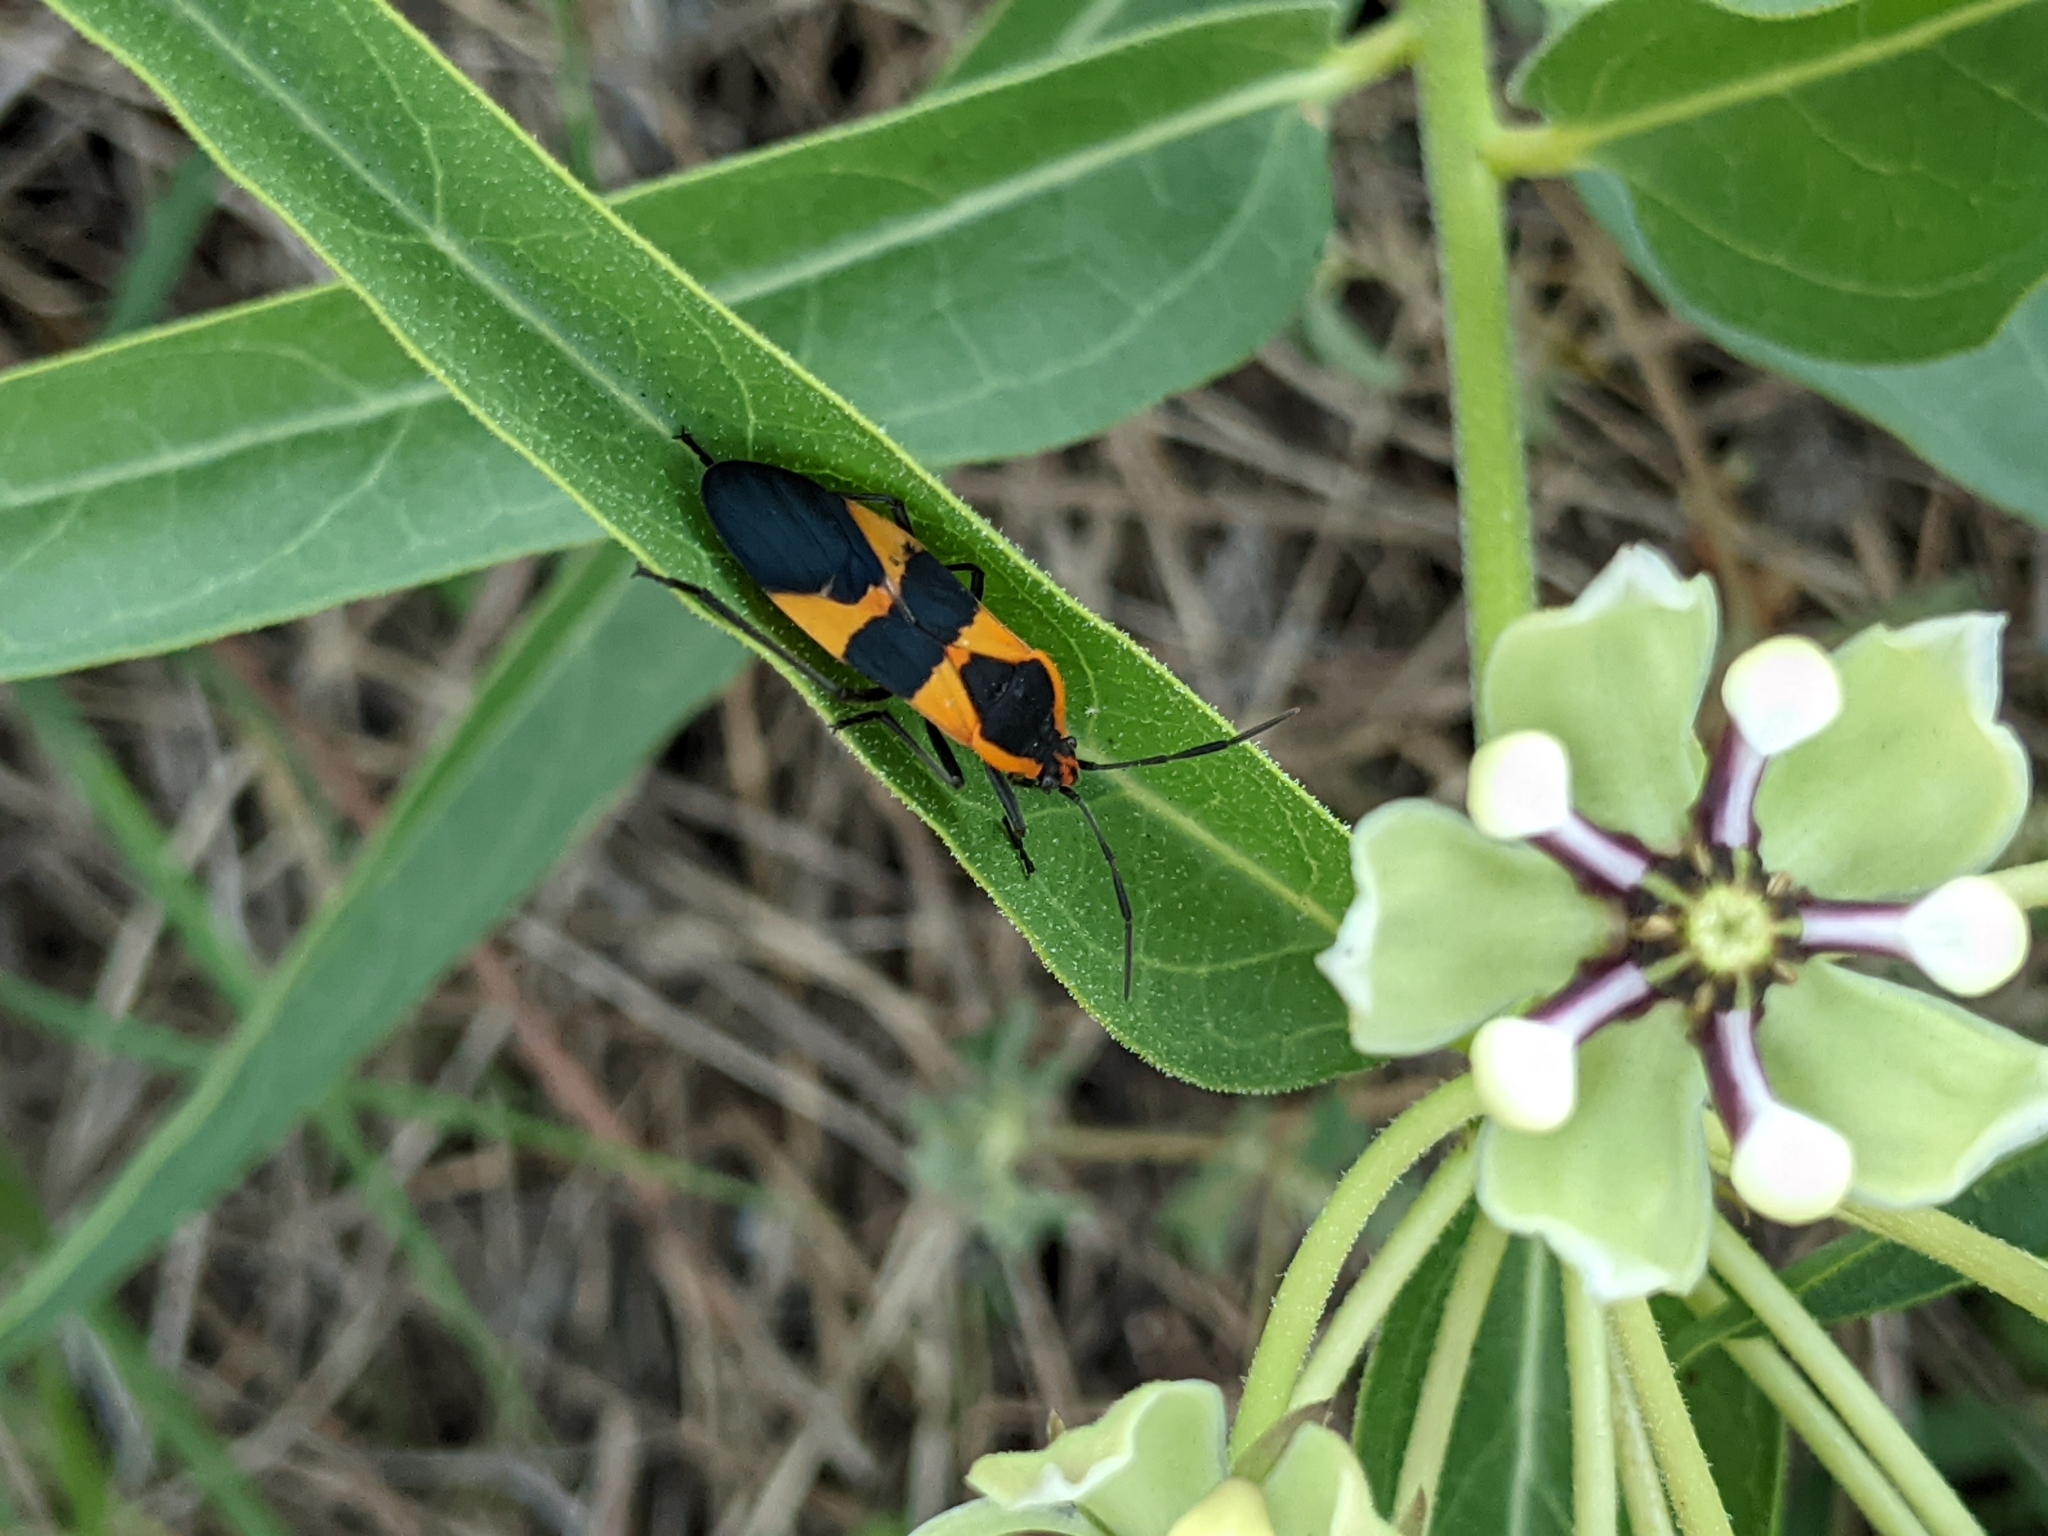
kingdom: Animalia
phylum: Arthropoda
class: Insecta
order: Hemiptera
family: Lygaeidae
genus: Oncopeltus
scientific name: Oncopeltus fasciatus
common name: Large milkweed bug
